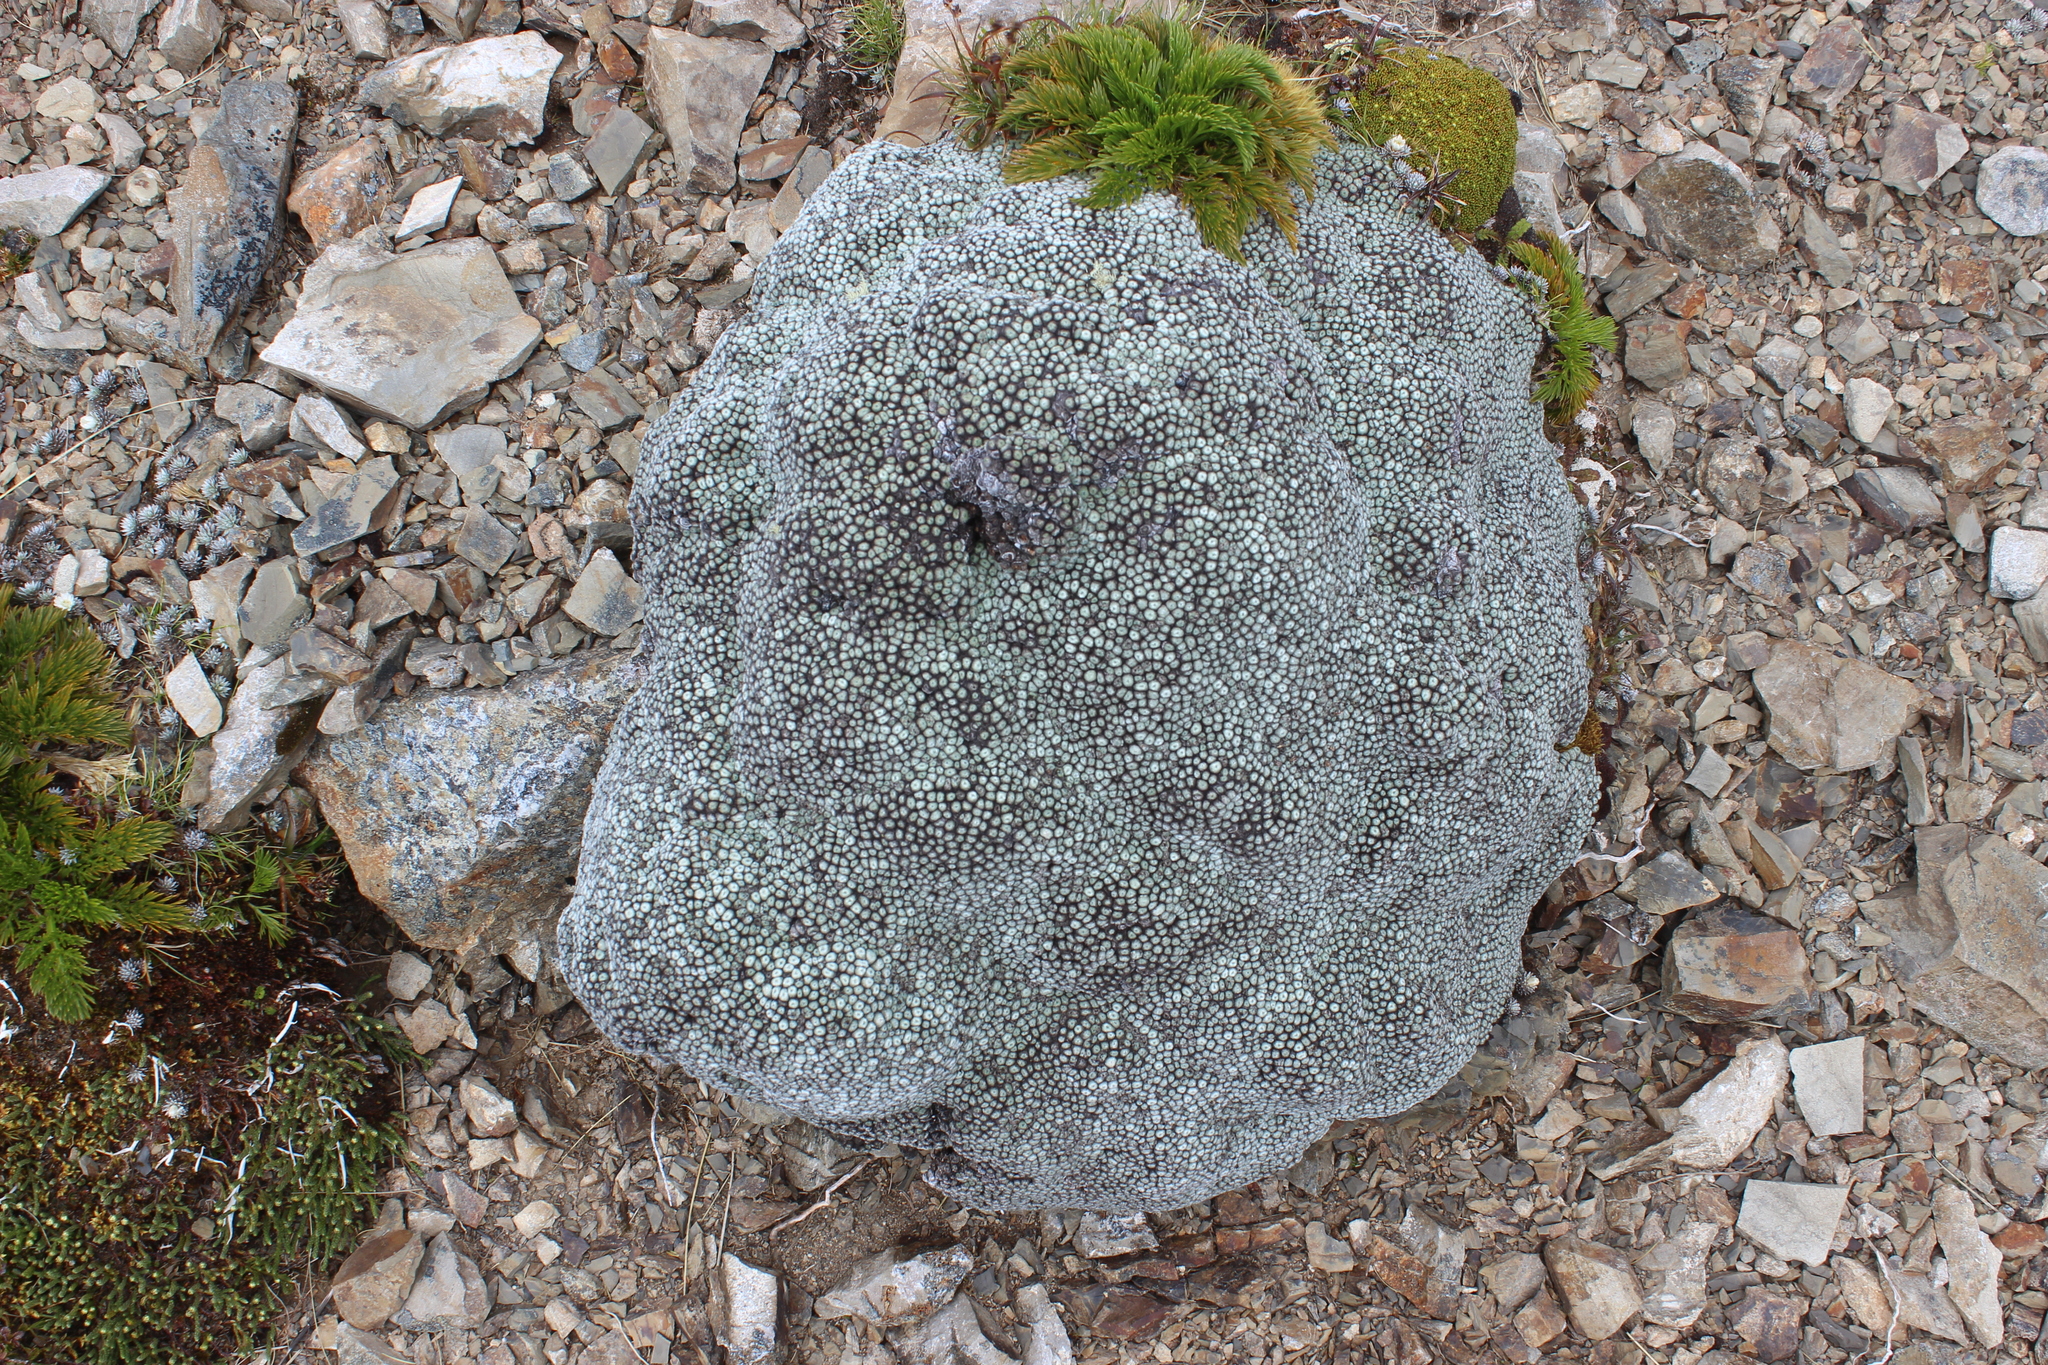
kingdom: Plantae
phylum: Tracheophyta
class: Magnoliopsida
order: Asterales
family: Asteraceae
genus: Raoulia
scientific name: Raoulia rubra
